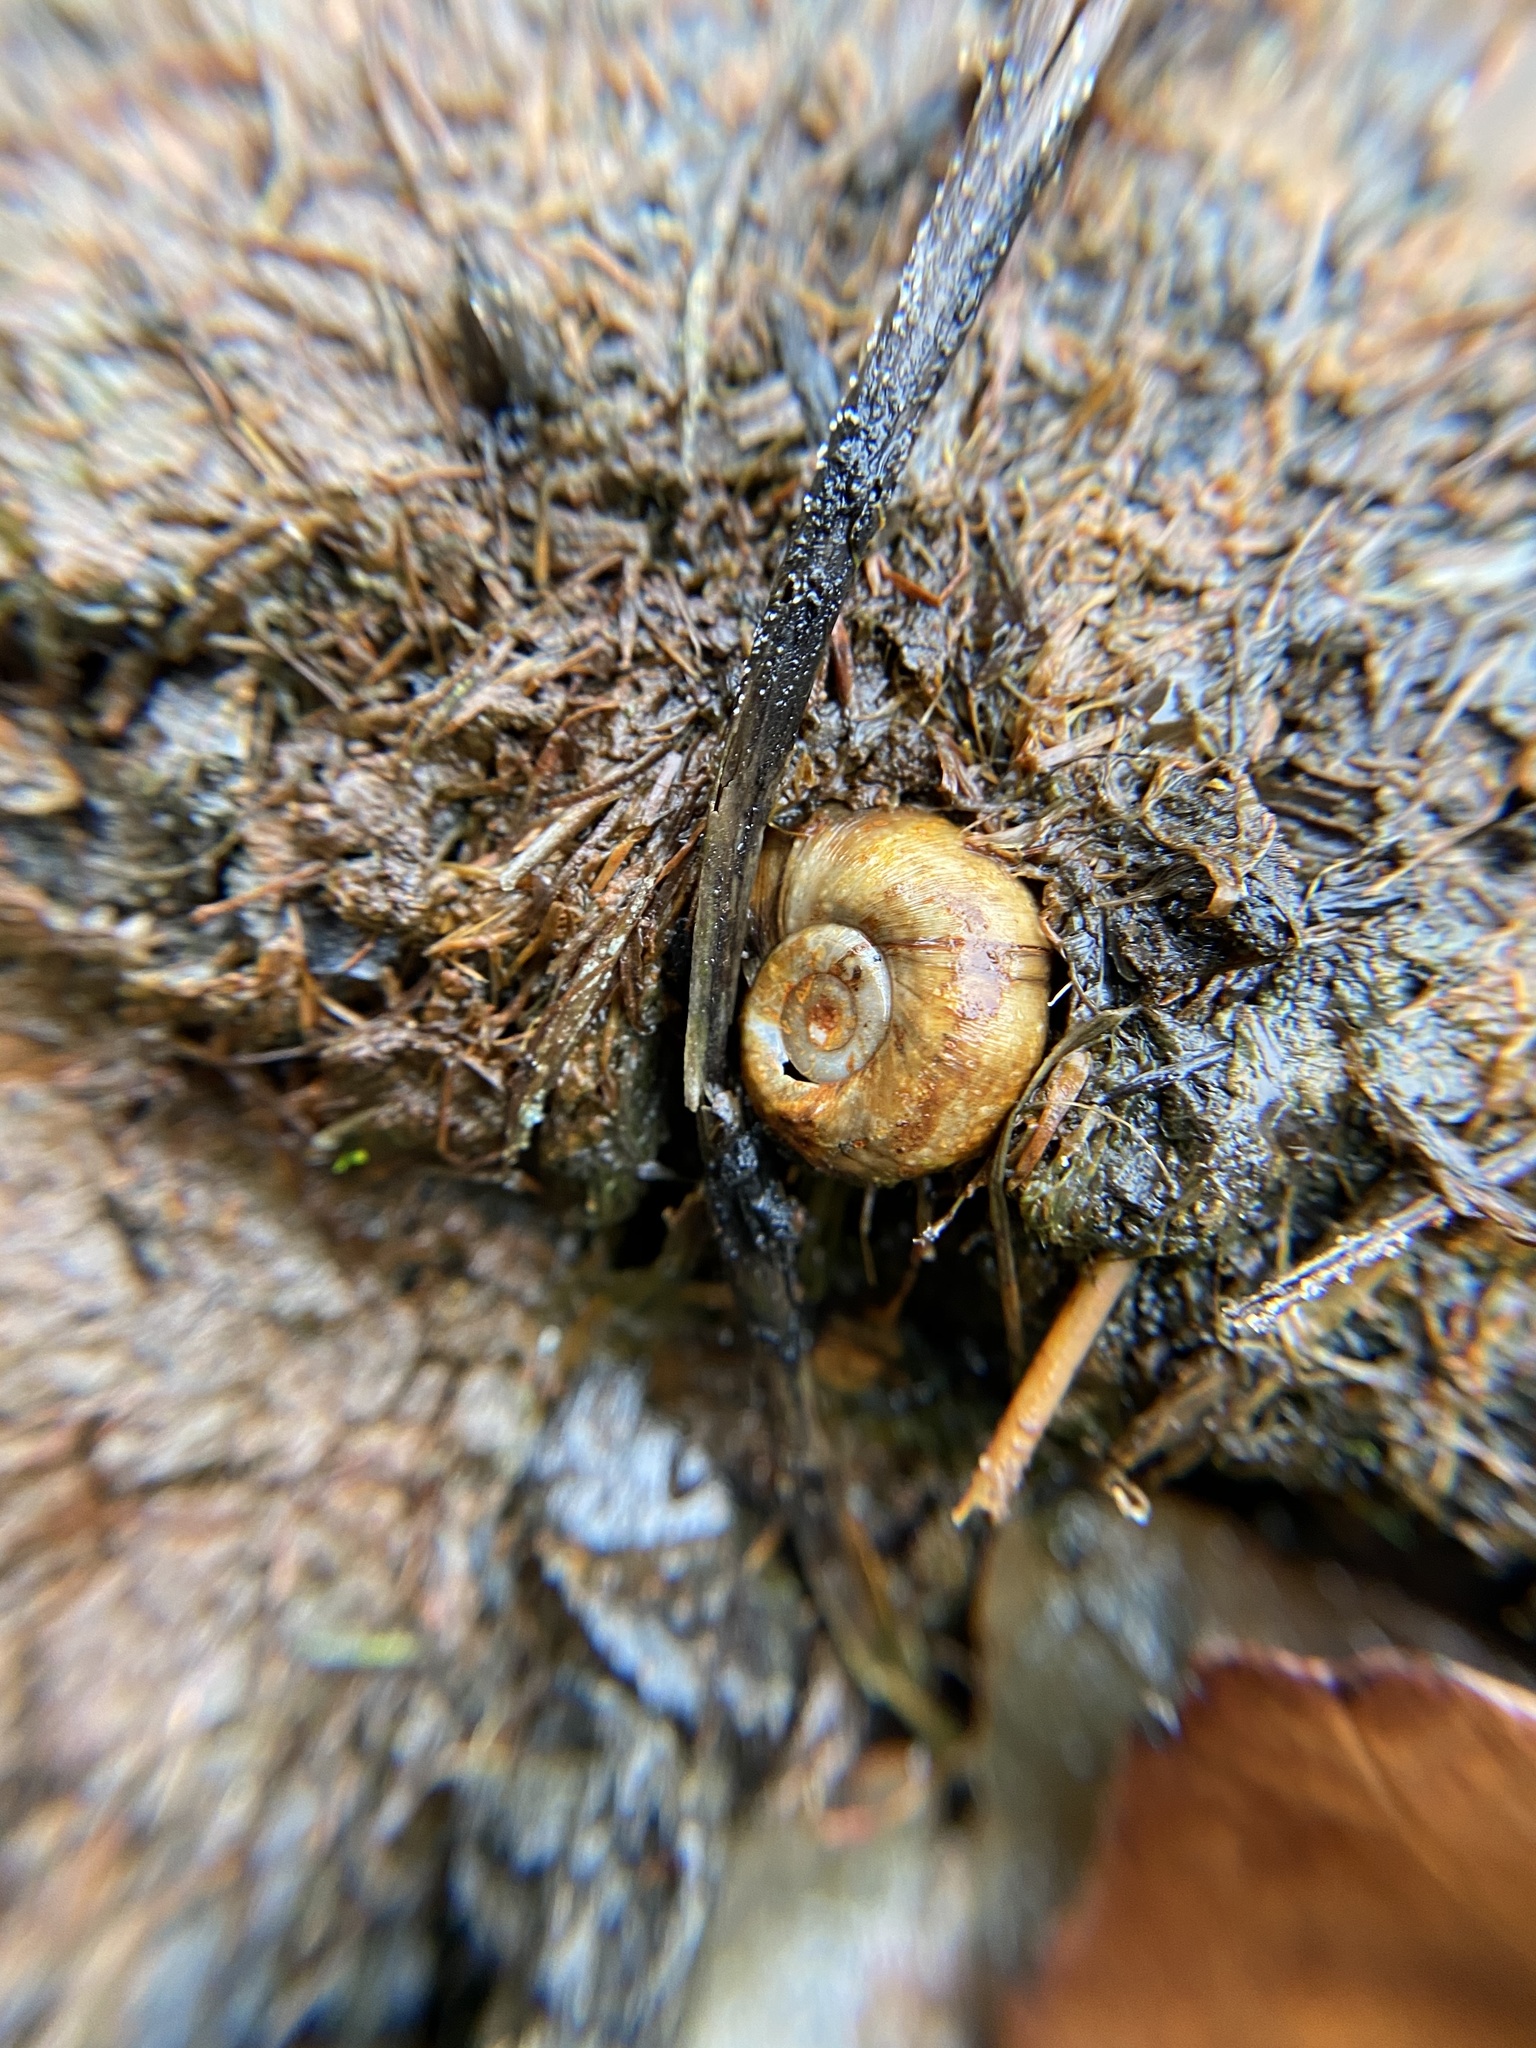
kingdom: Animalia
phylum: Mollusca
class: Gastropoda
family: Planorbidae
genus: Planorbella
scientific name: Planorbella trivolvis
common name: Marsh rams-horn
